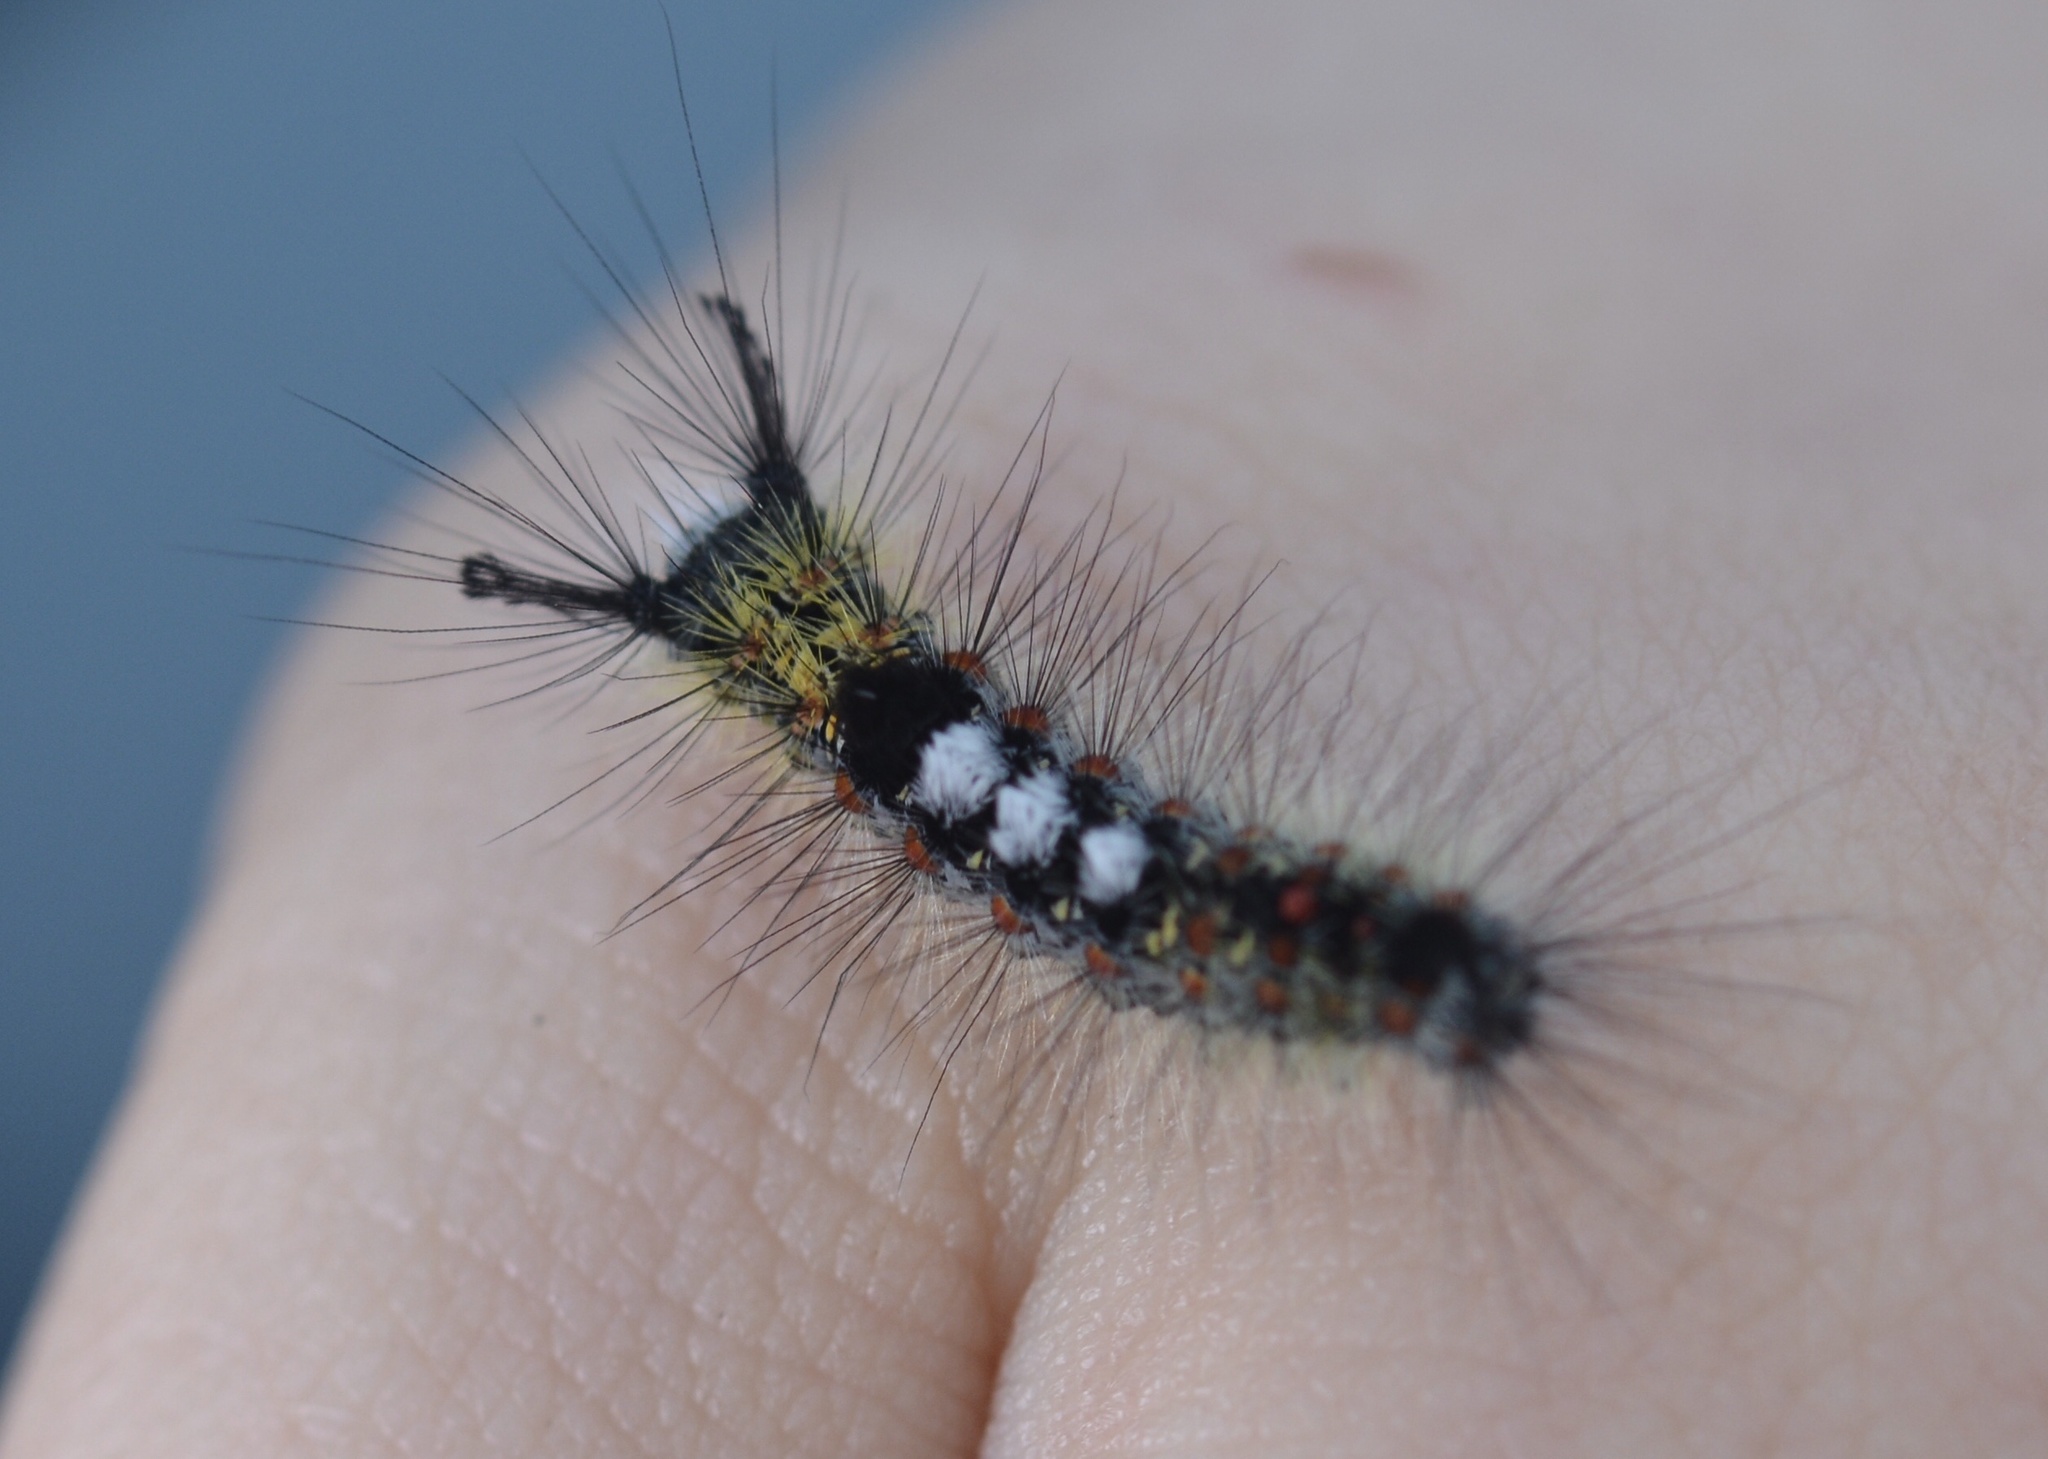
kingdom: Animalia
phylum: Arthropoda
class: Insecta
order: Lepidoptera
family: Erebidae
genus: Orgyia
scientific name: Orgyia vetusta
